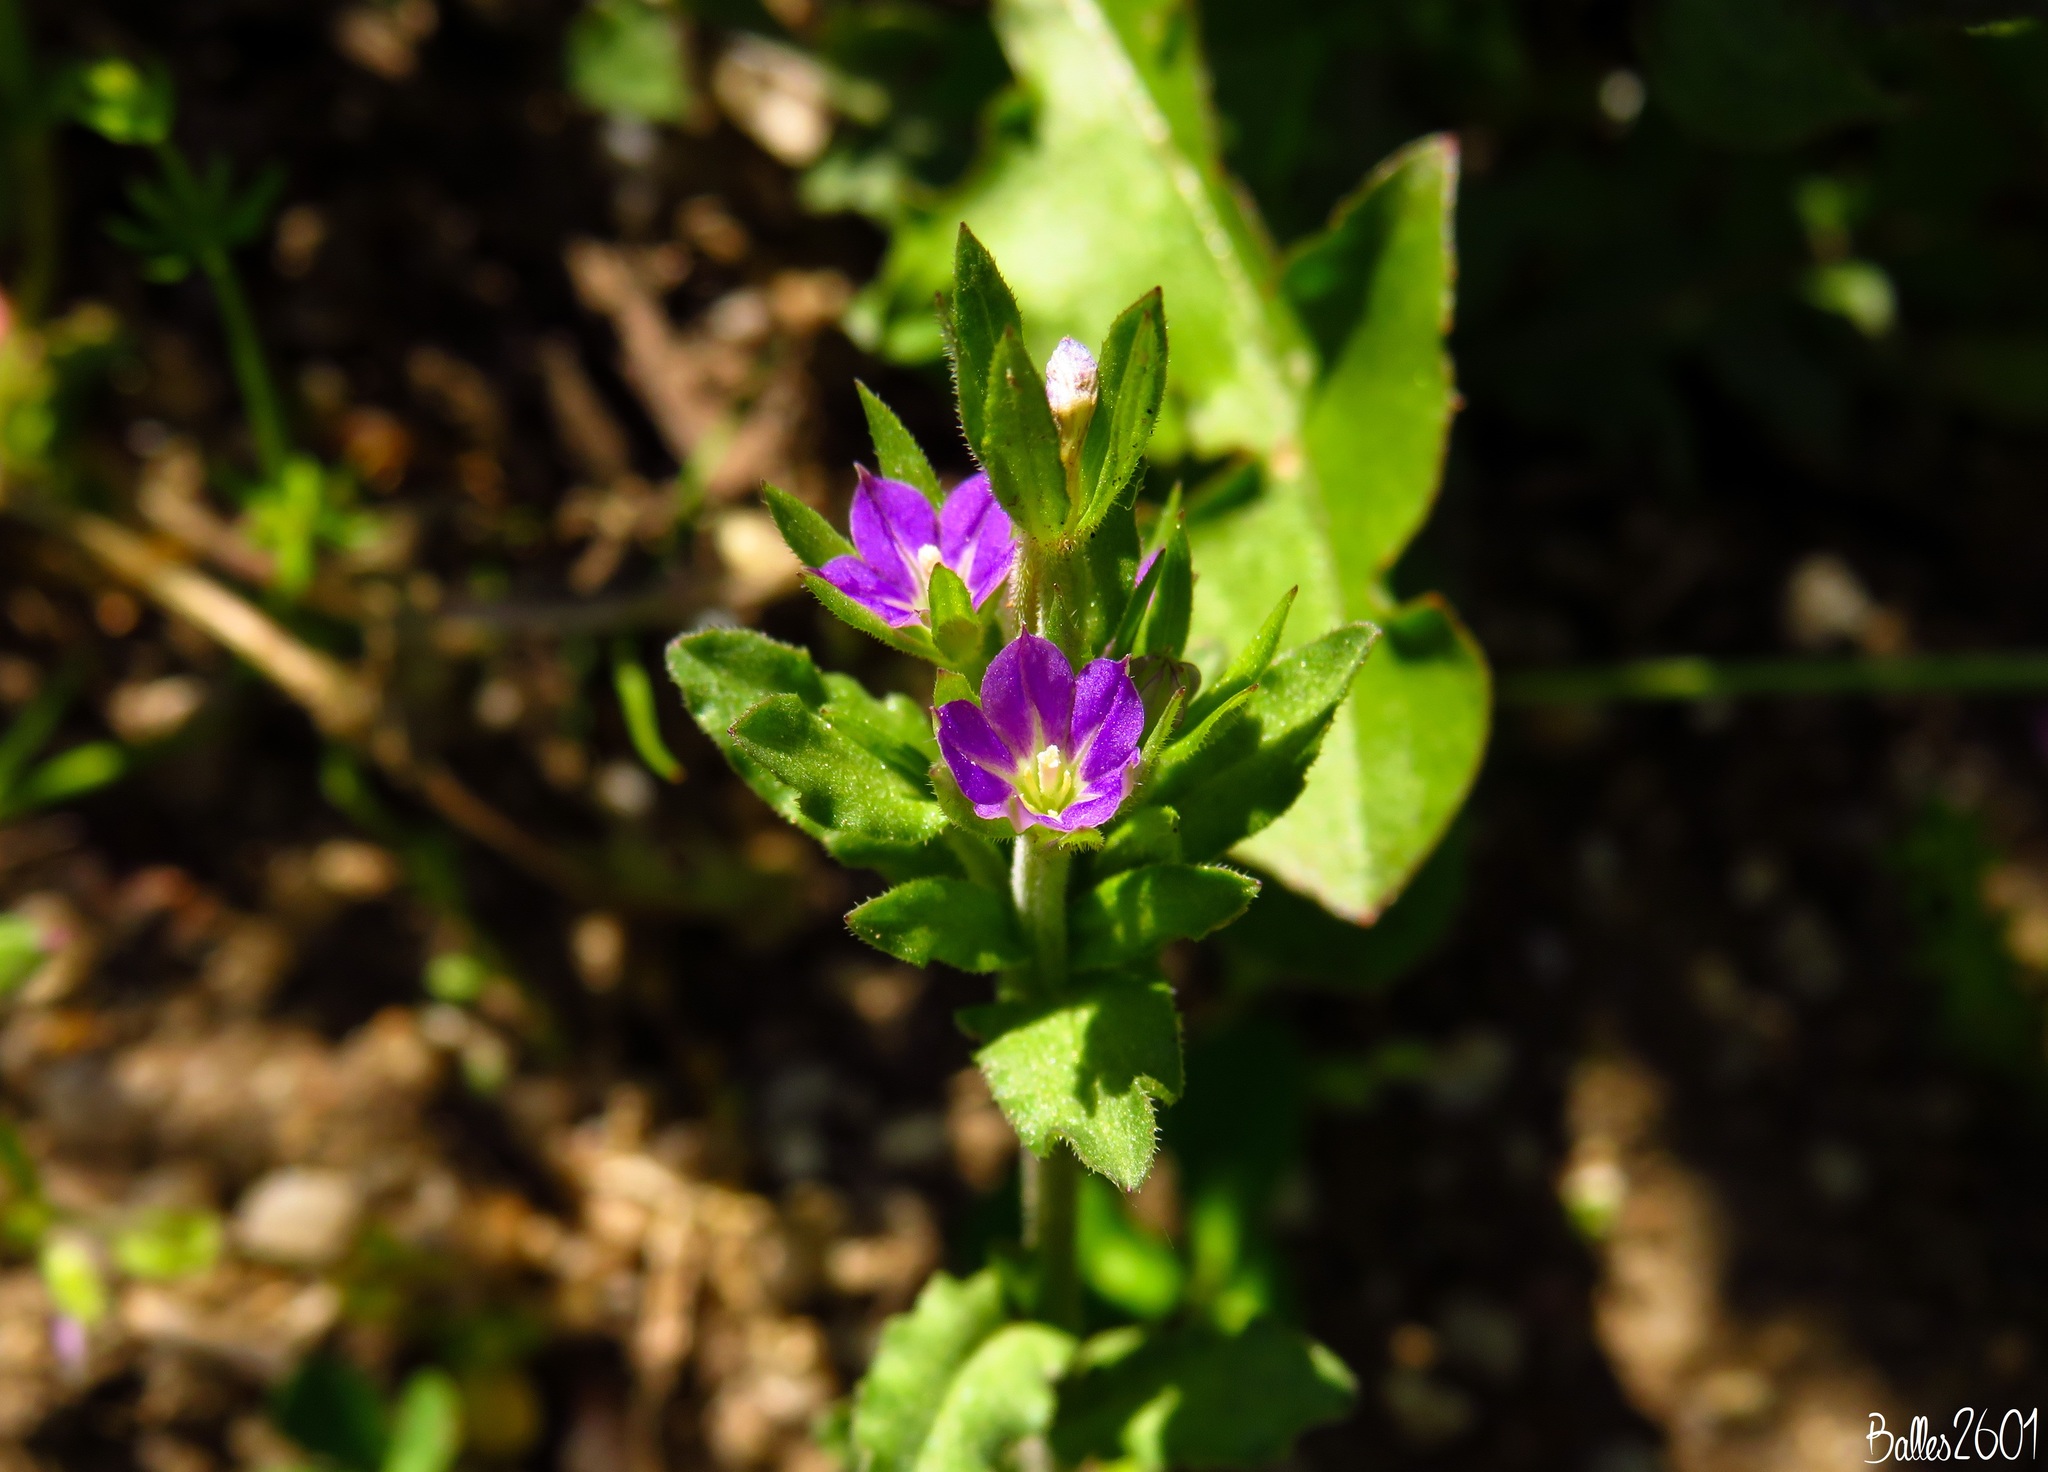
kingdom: Plantae
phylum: Tracheophyta
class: Magnoliopsida
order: Asterales
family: Campanulaceae
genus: Legousia
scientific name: Legousia hybrida
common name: Venus's-looking-glass
